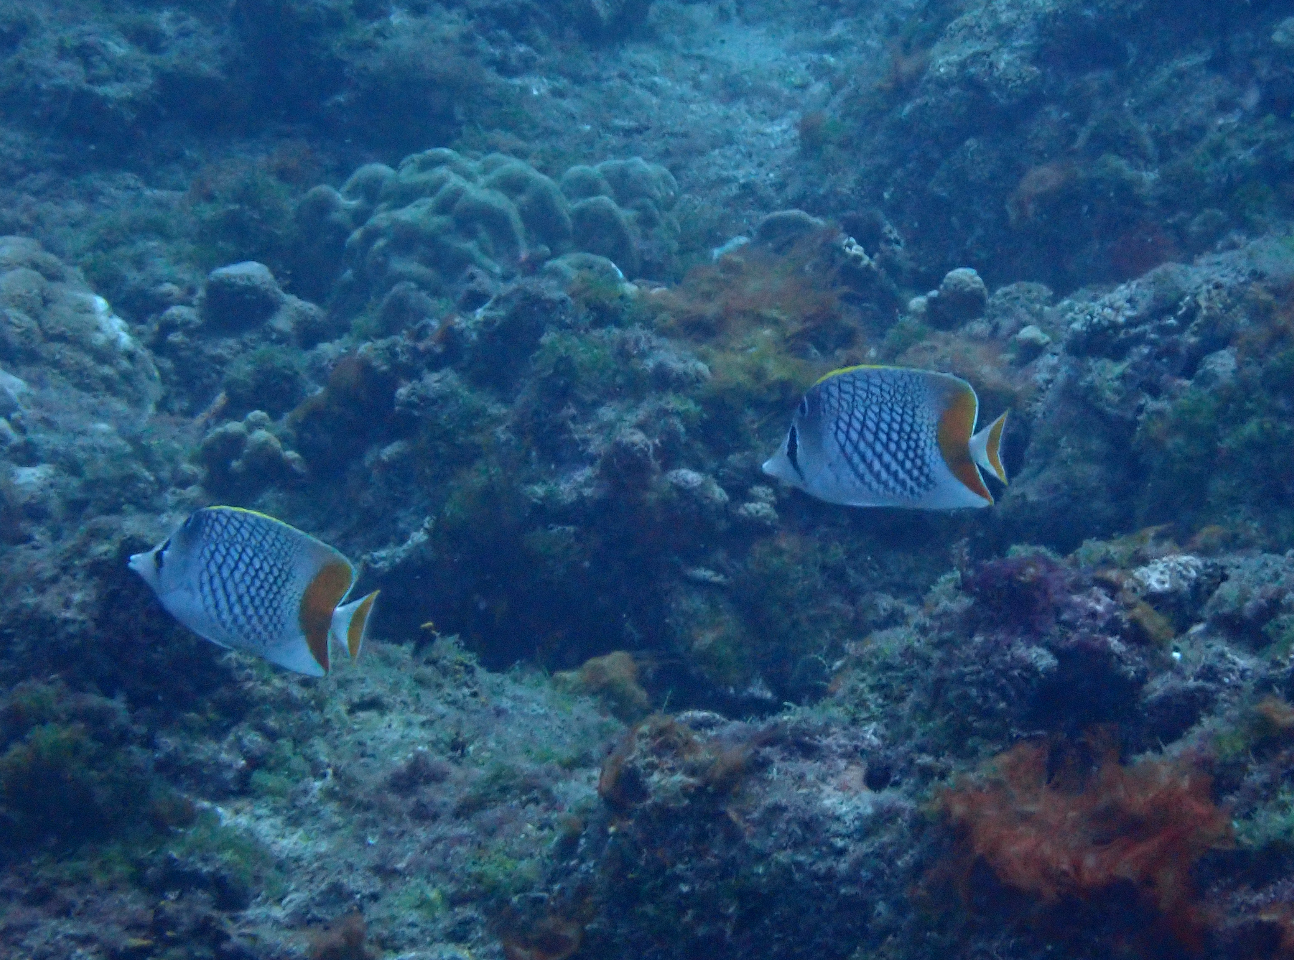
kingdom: Animalia
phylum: Chordata
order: Perciformes
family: Chaetodontidae
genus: Chaetodon
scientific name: Chaetodon xanthurus
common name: Philippine chevron butterflyfish
